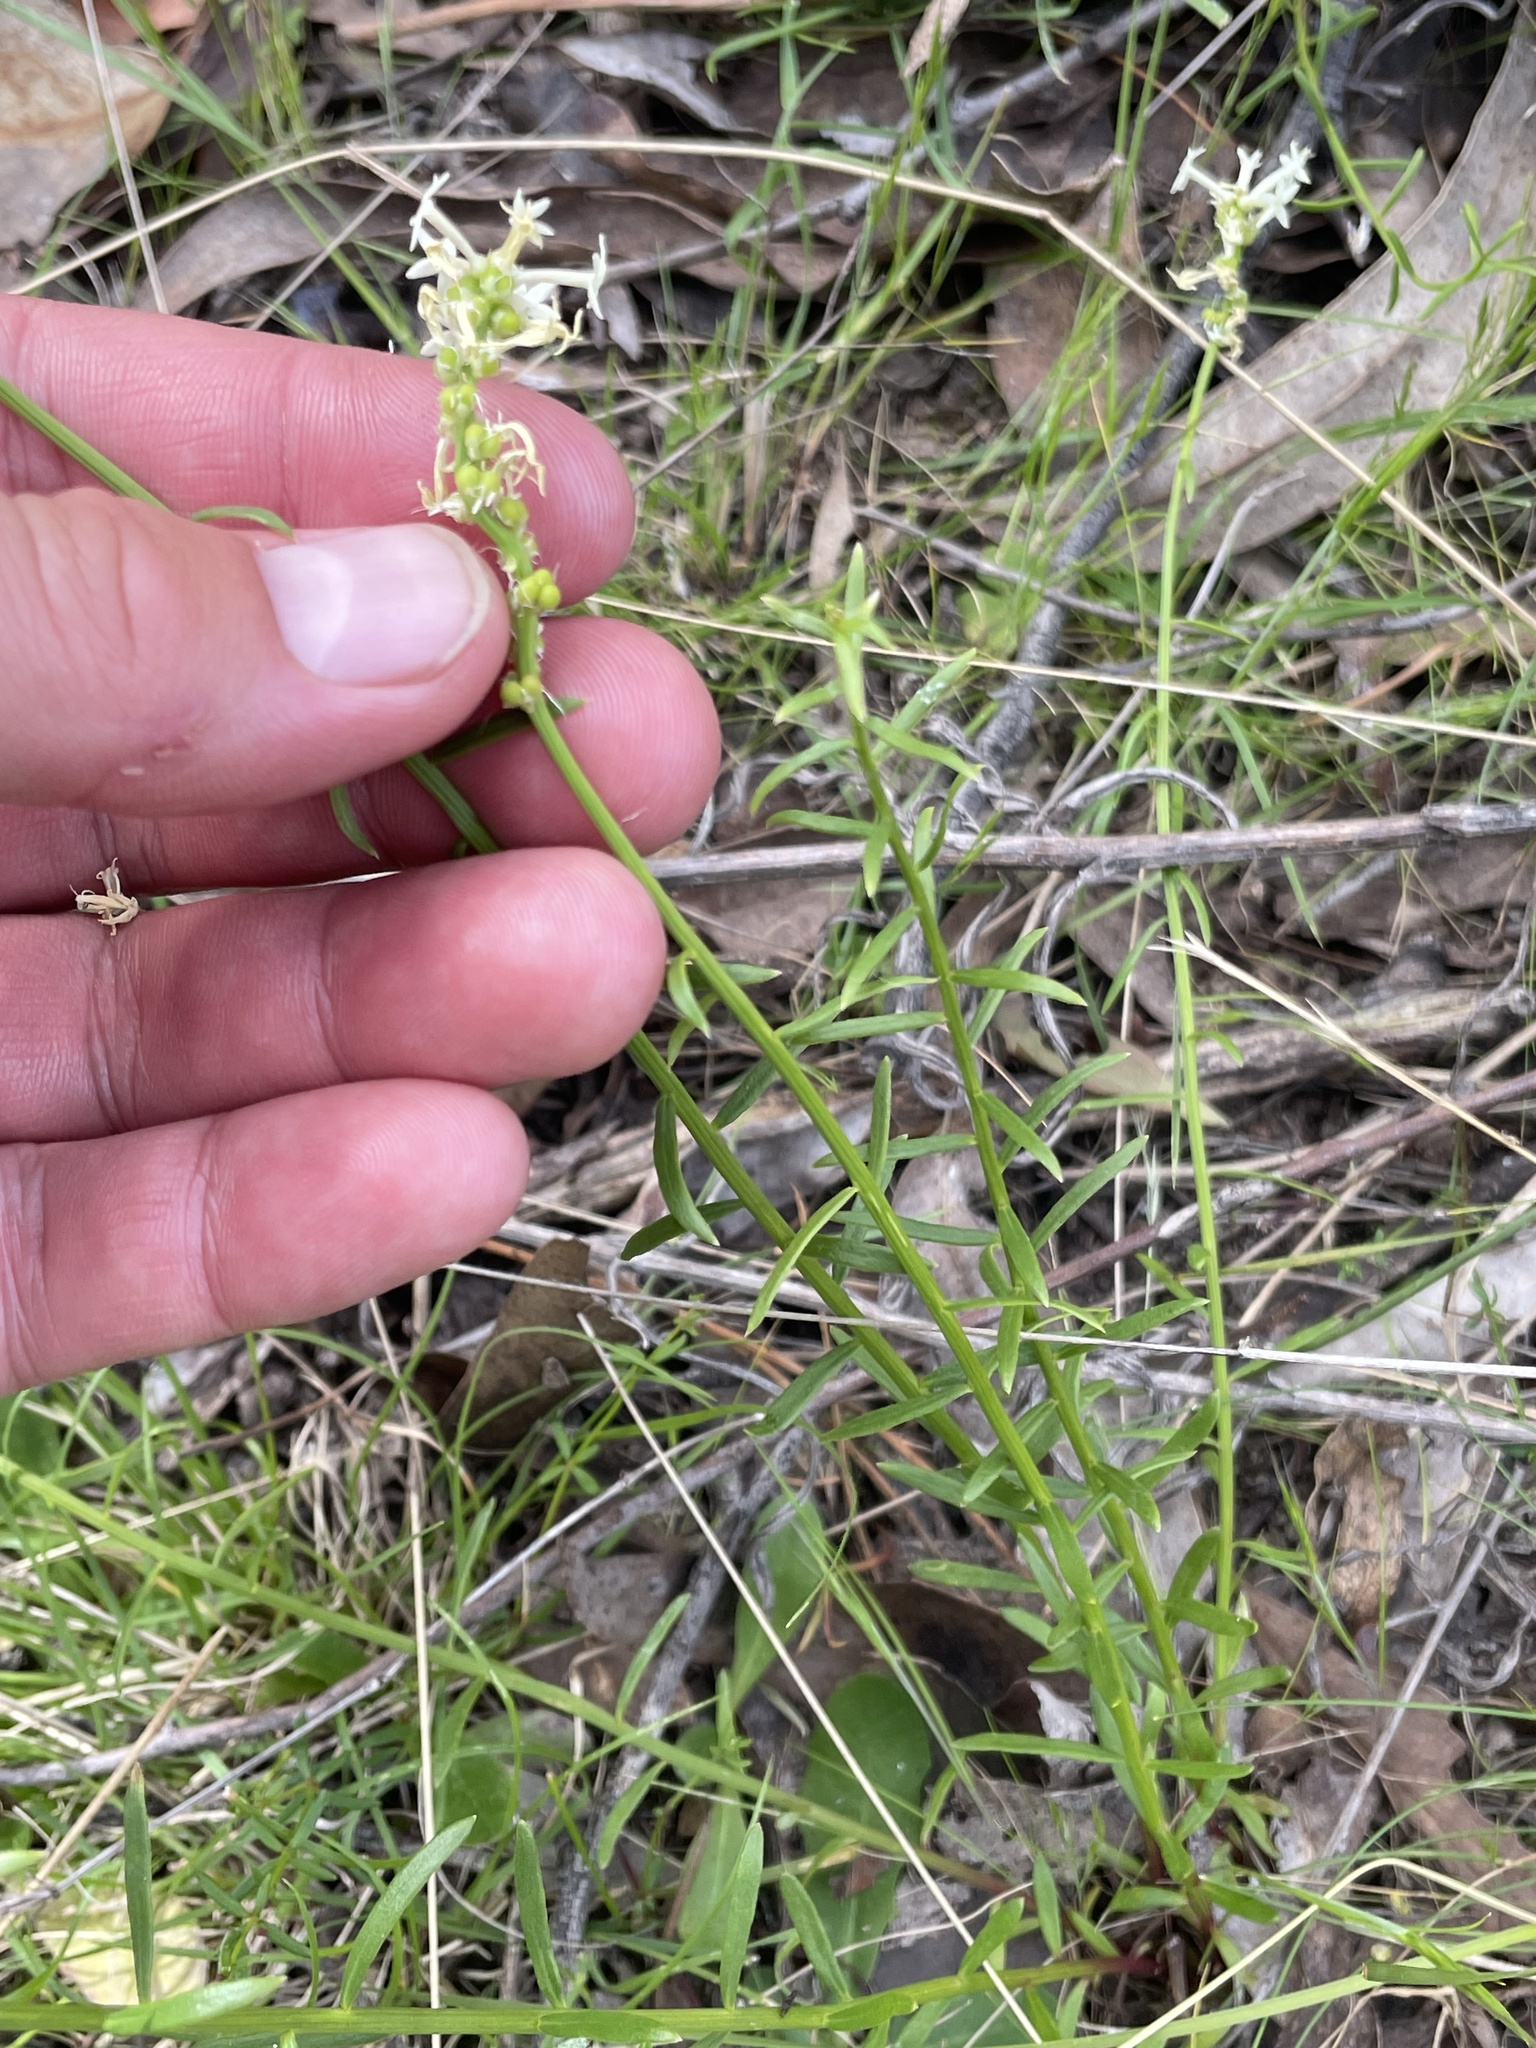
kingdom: Plantae
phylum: Tracheophyta
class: Magnoliopsida
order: Celastrales
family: Celastraceae
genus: Stackhousia
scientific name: Stackhousia monogyna
